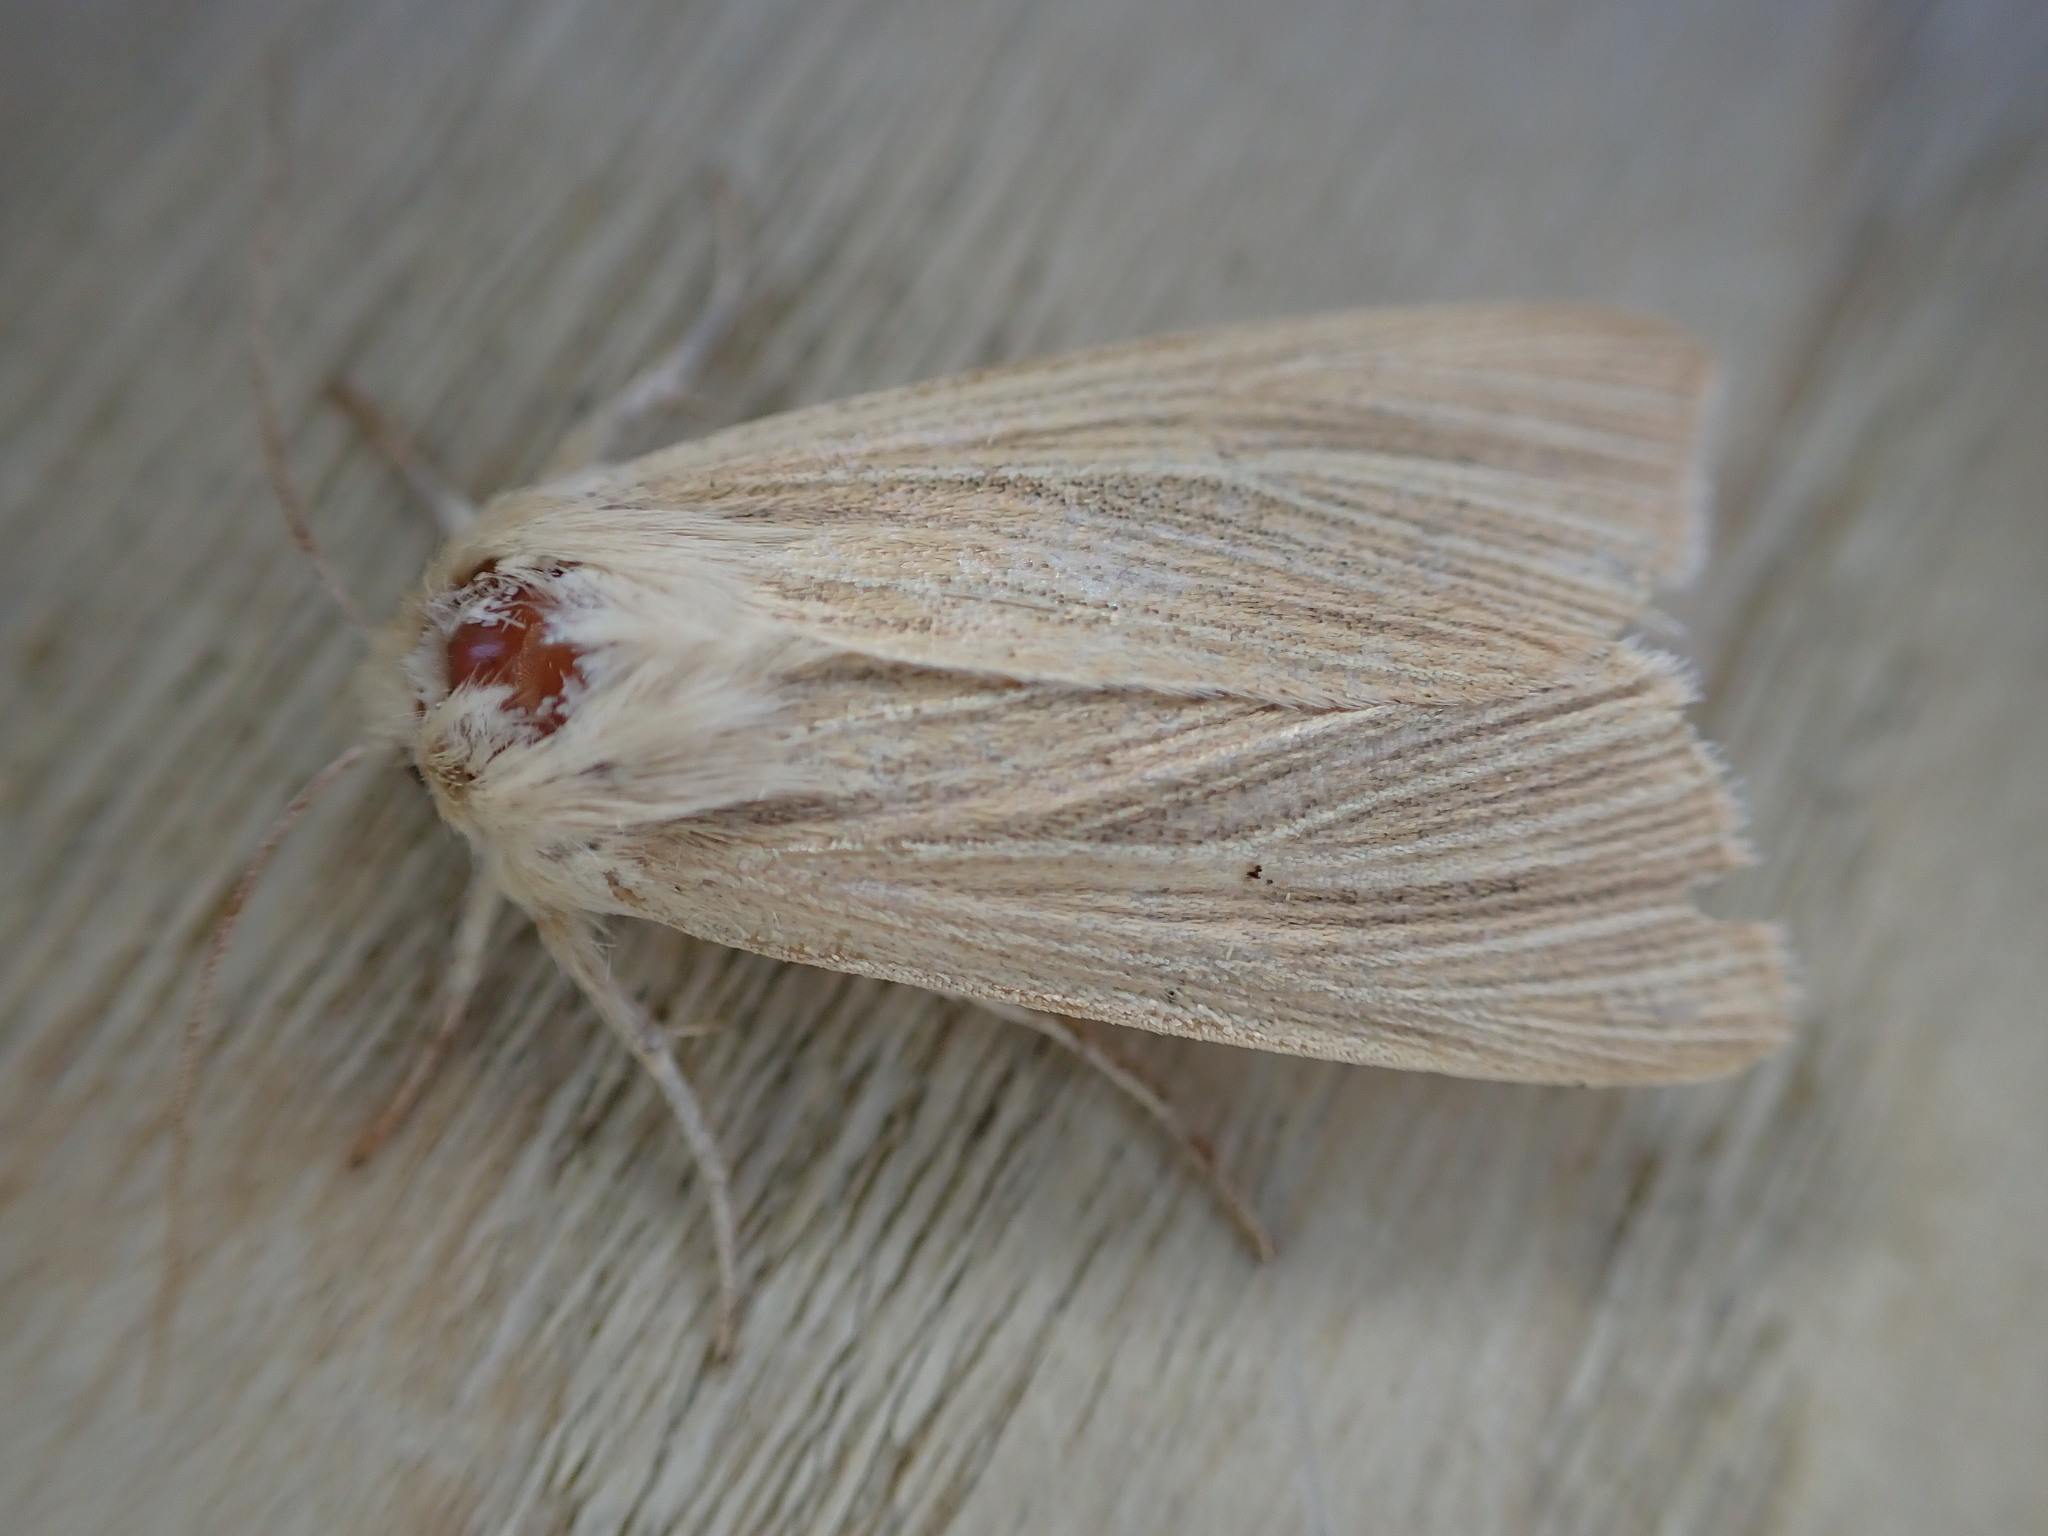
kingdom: Animalia
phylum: Arthropoda
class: Insecta
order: Lepidoptera
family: Noctuidae
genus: Mythimna
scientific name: Mythimna pallens
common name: Common wainscot
